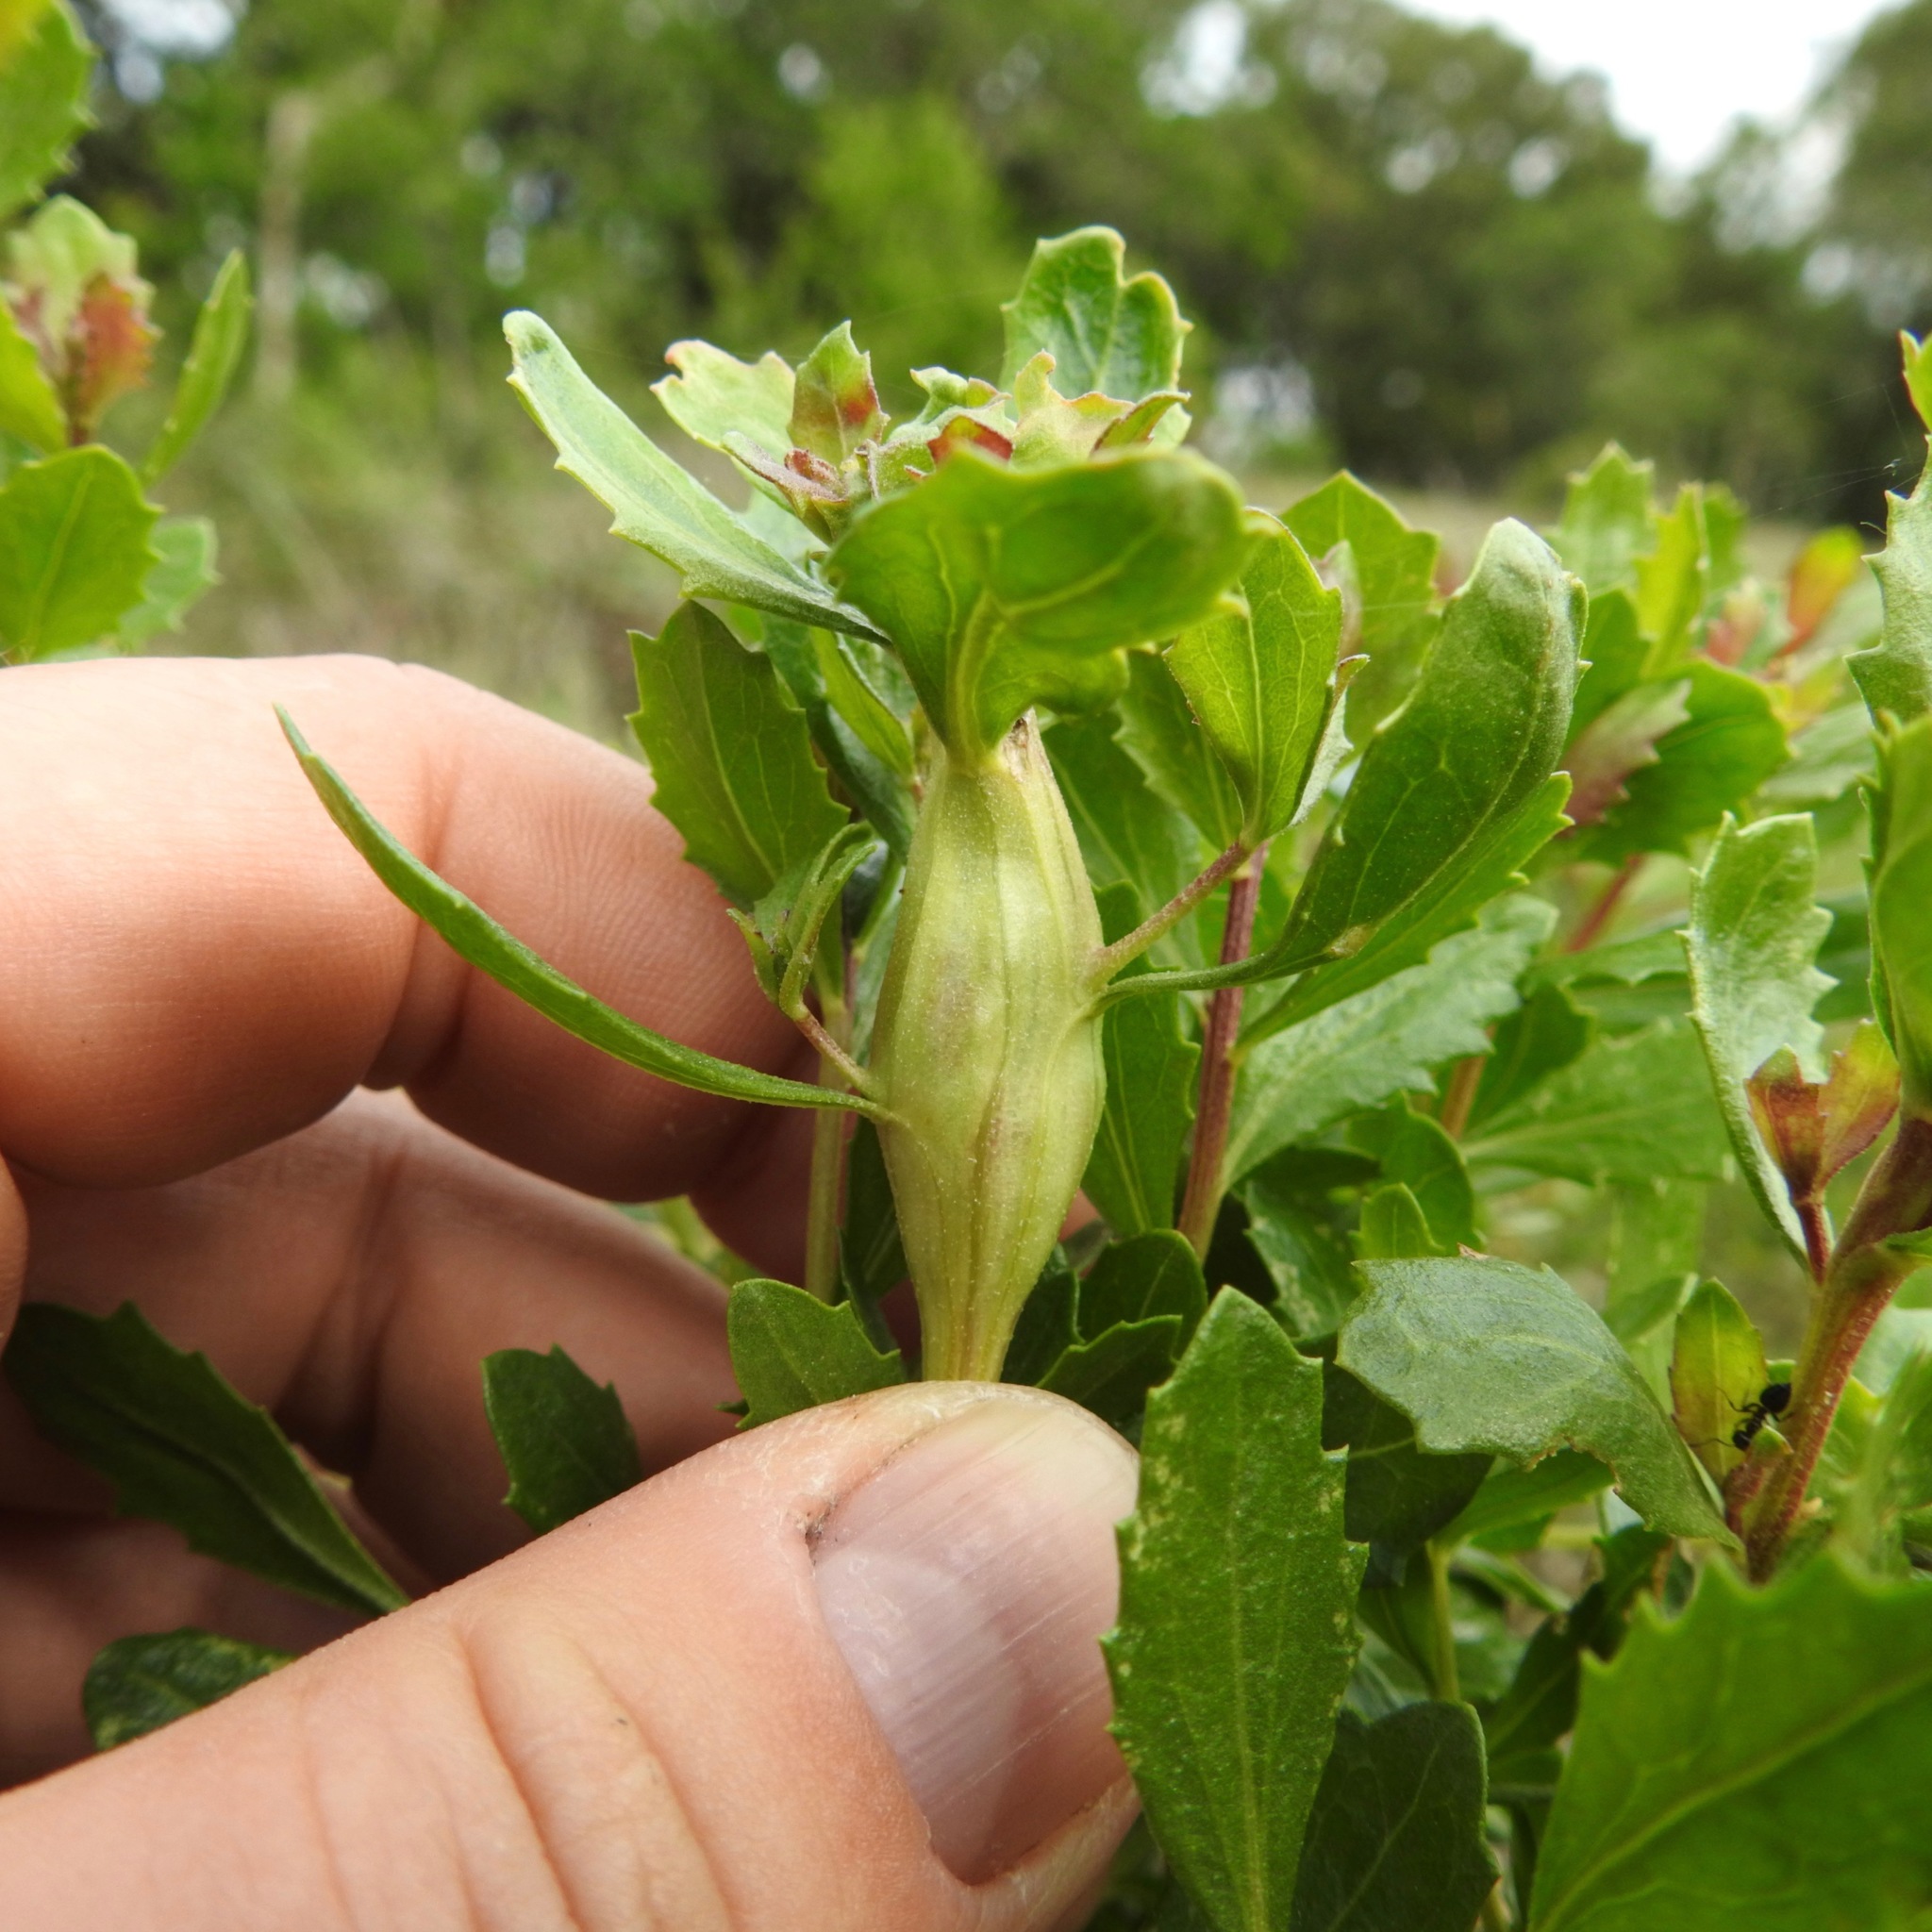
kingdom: Animalia
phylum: Arthropoda
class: Insecta
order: Lepidoptera
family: Gelechiidae
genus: Gnorimoschema
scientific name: Gnorimoschema baccharisella
